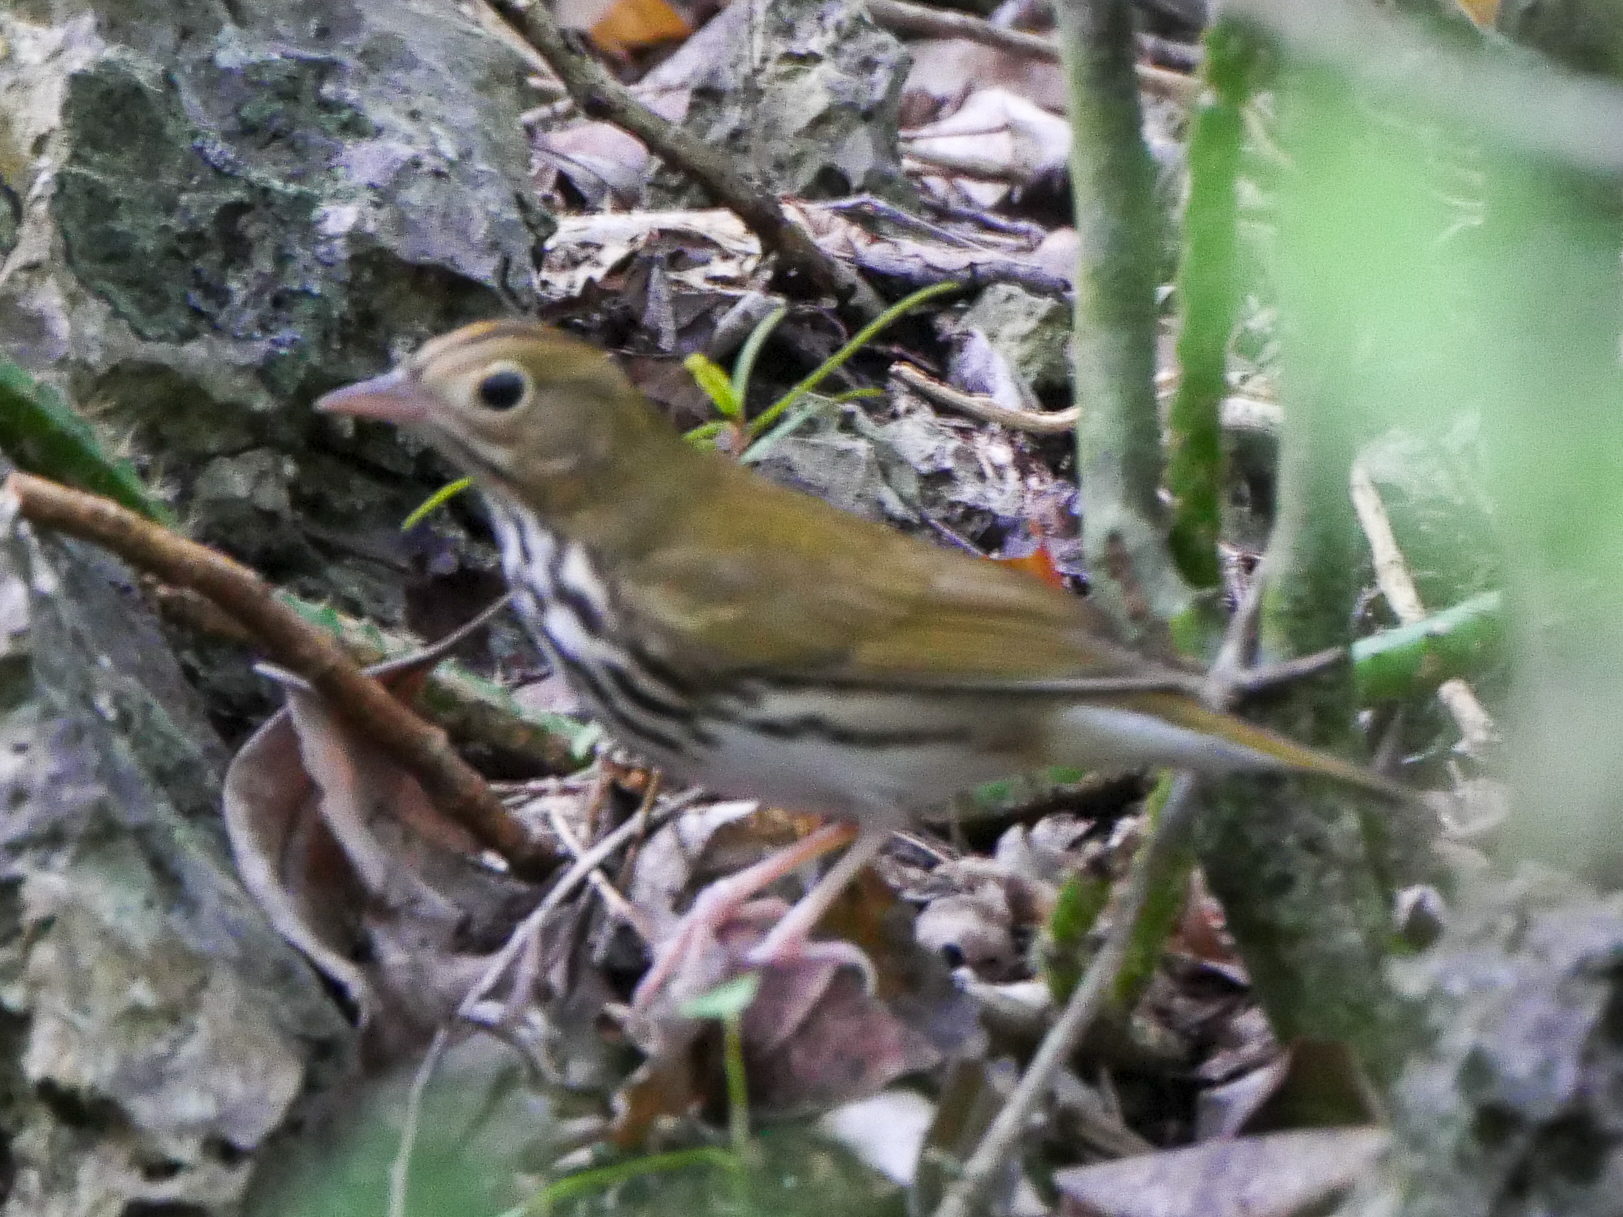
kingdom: Animalia
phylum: Chordata
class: Aves
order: Passeriformes
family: Parulidae
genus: Seiurus
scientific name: Seiurus aurocapilla
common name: Ovenbird
